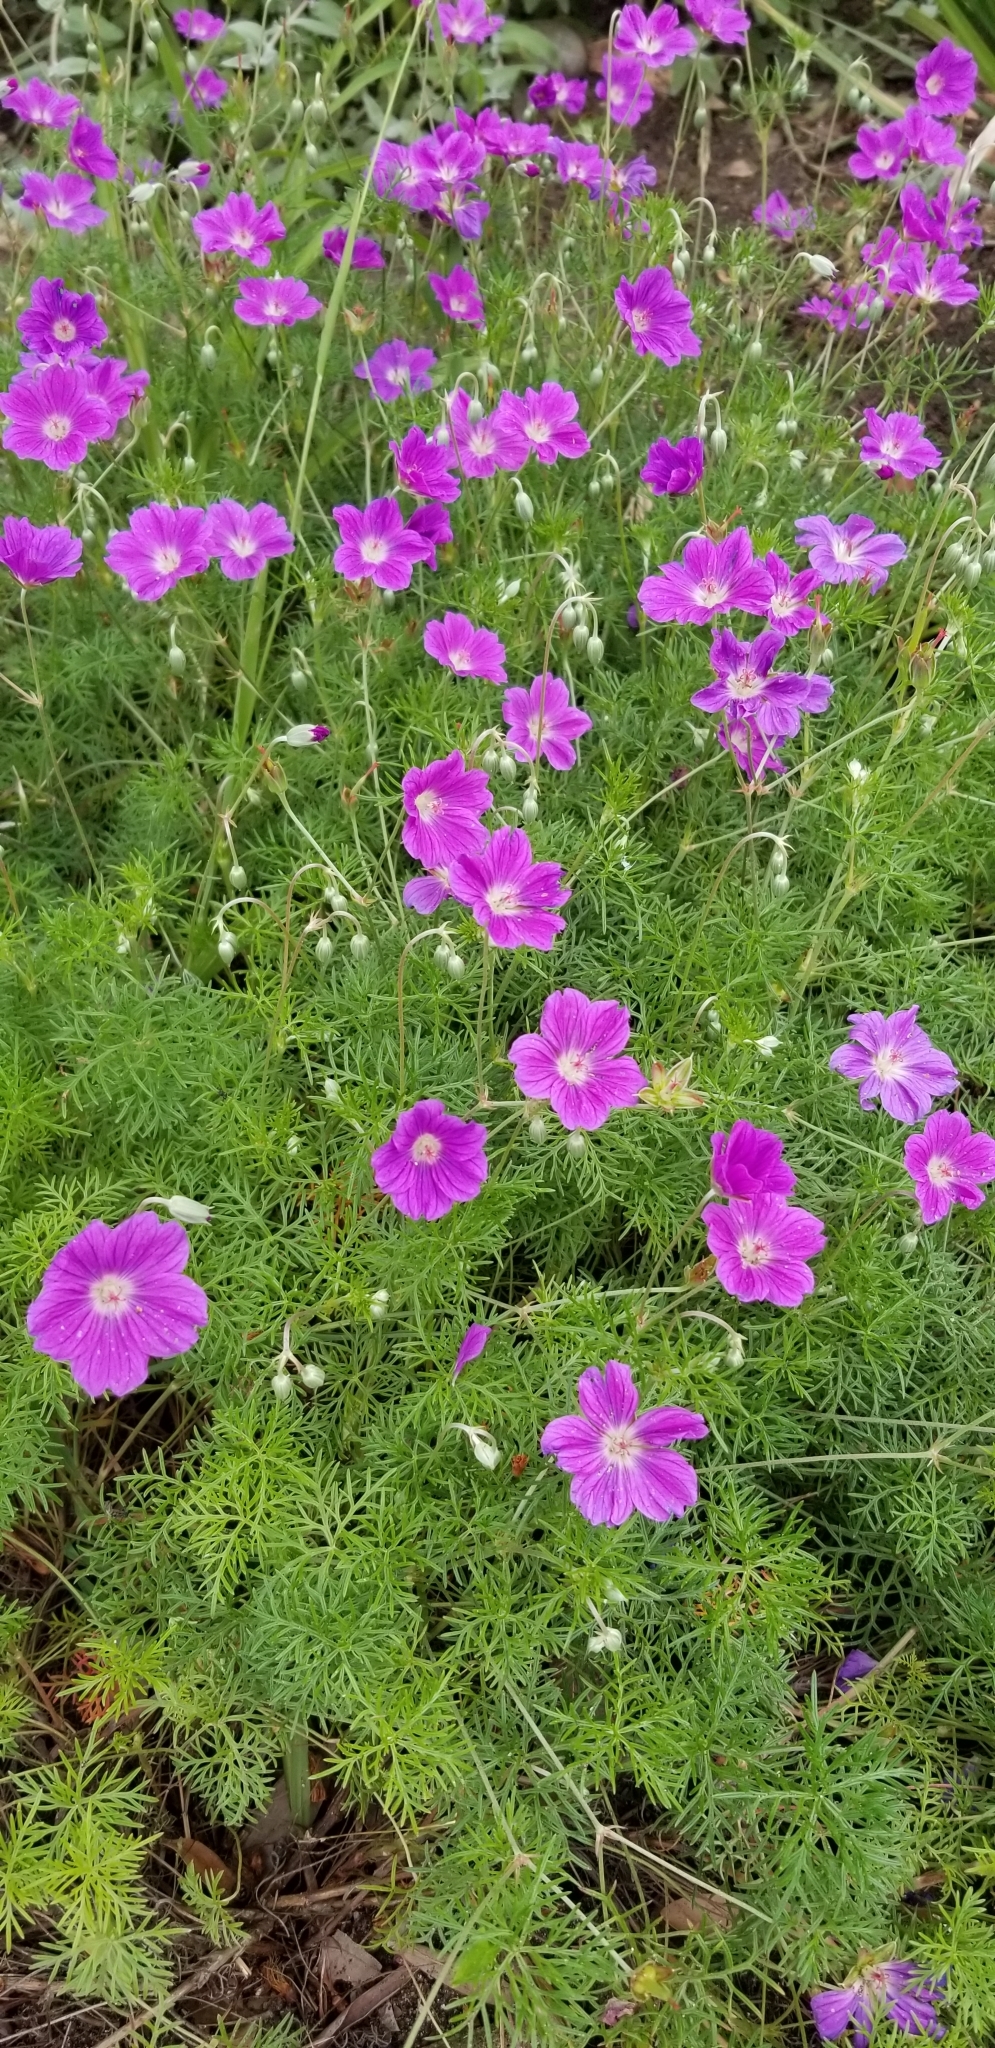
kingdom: Plantae
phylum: Tracheophyta
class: Magnoliopsida
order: Geraniales
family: Geraniaceae
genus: Geranium
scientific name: Geranium incanum
